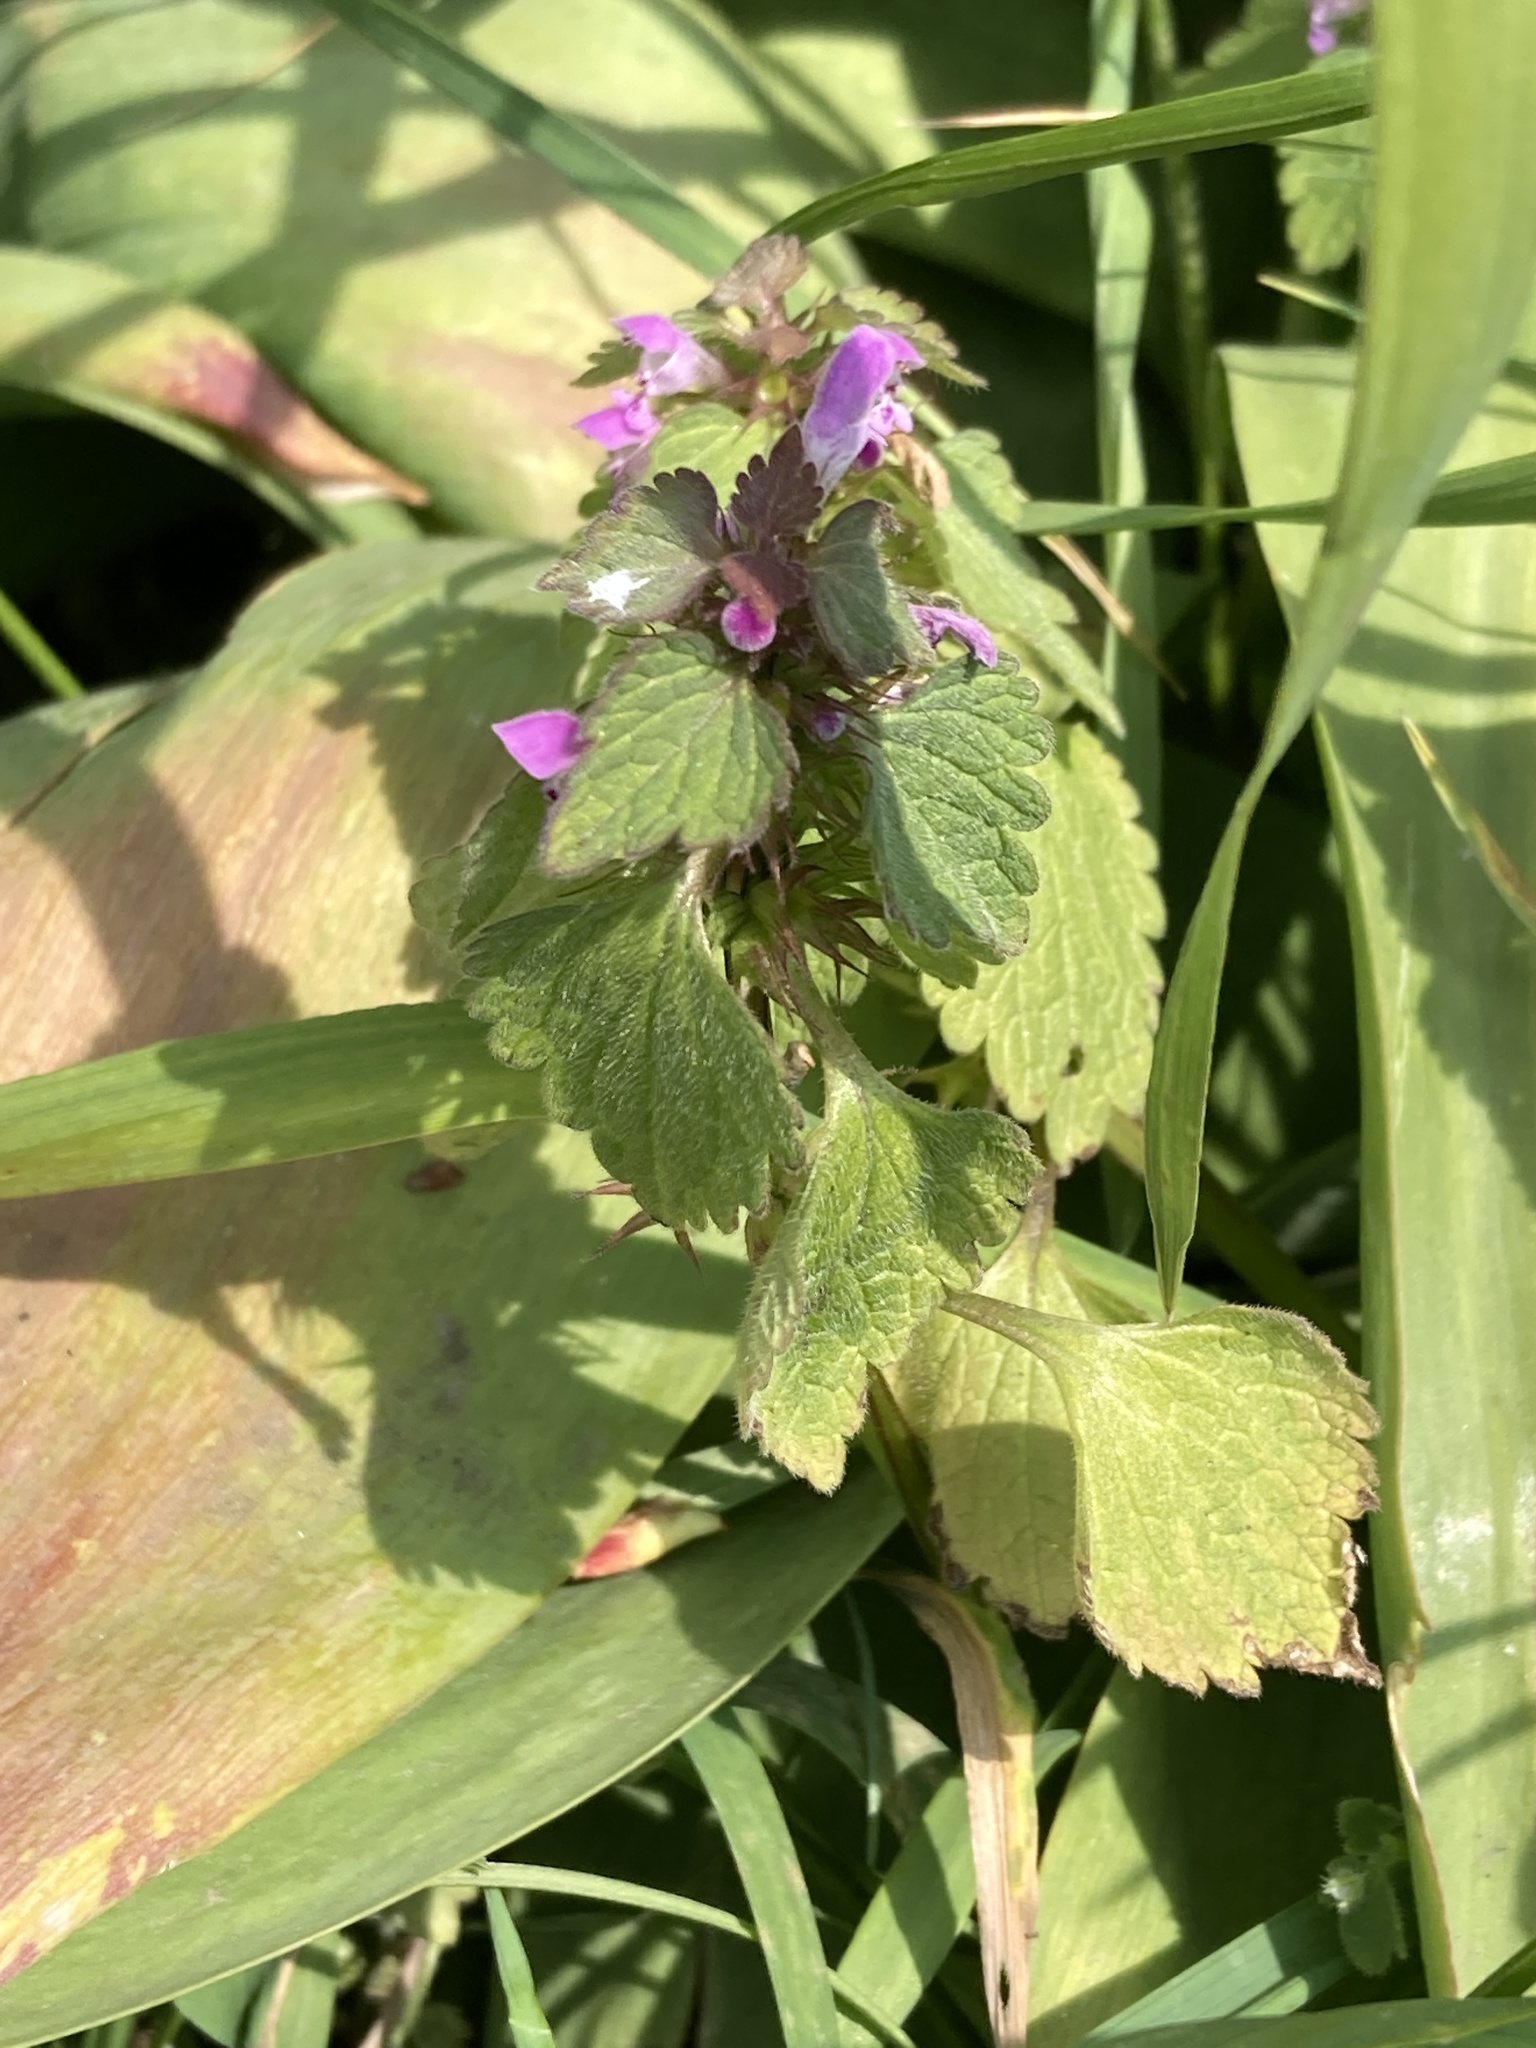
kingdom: Plantae
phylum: Tracheophyta
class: Magnoliopsida
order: Lamiales
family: Lamiaceae
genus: Lamium
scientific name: Lamium purpureum
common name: Red dead-nettle
